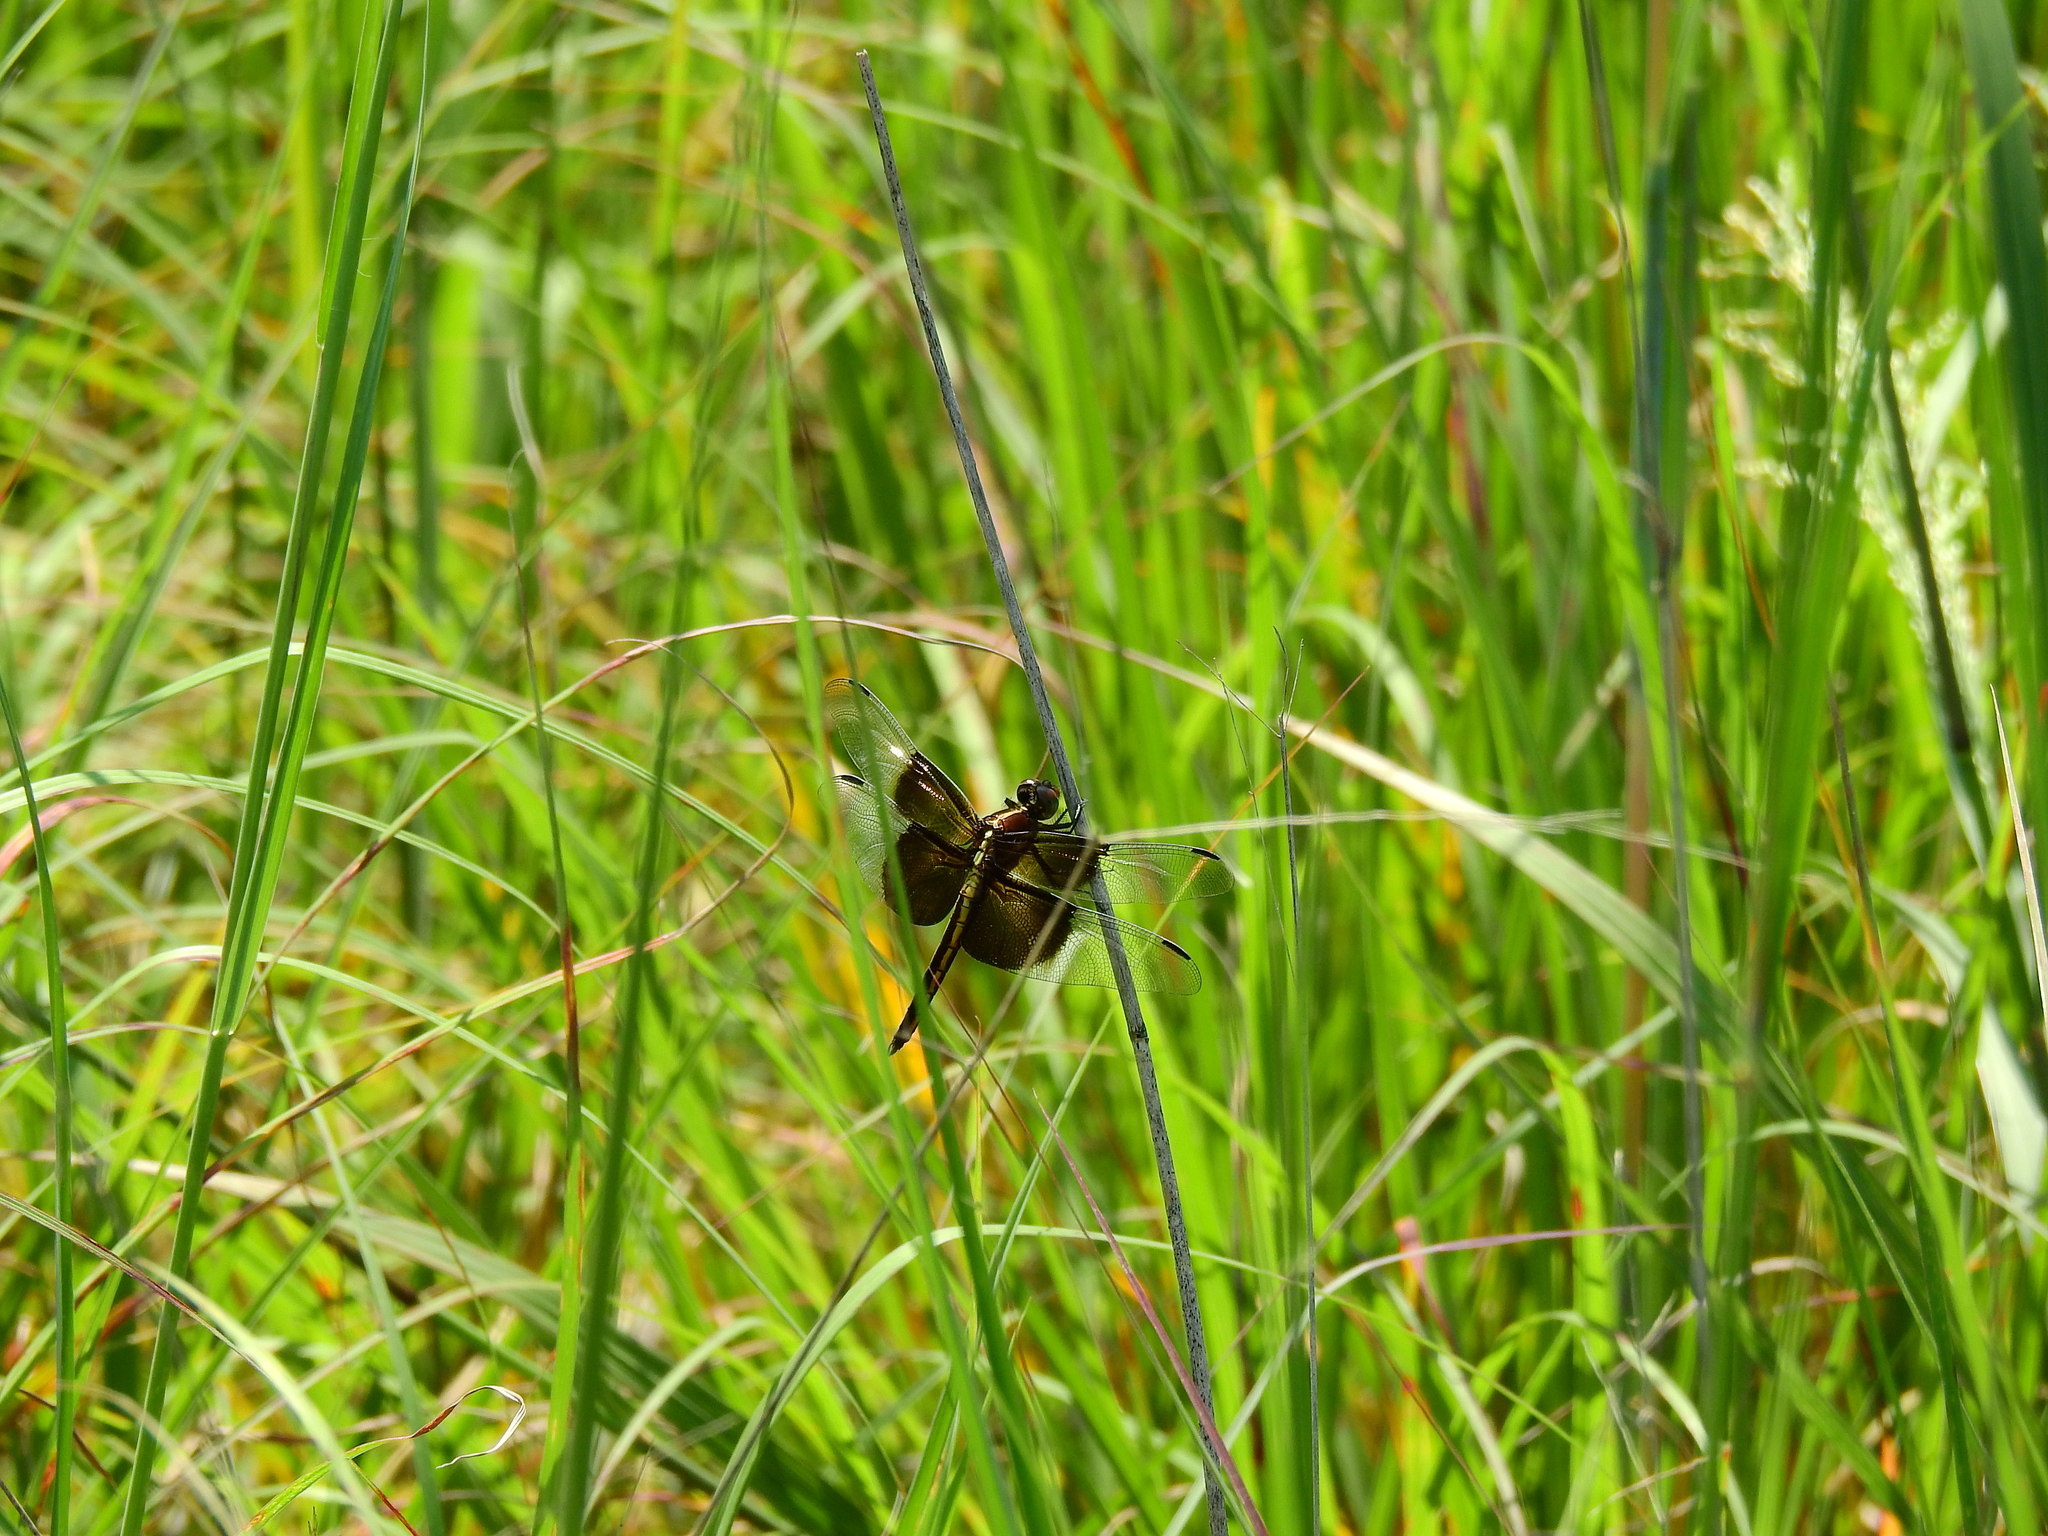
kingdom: Animalia
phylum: Arthropoda
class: Insecta
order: Odonata
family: Libellulidae
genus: Libellula
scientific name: Libellula luctuosa
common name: Widow skimmer
